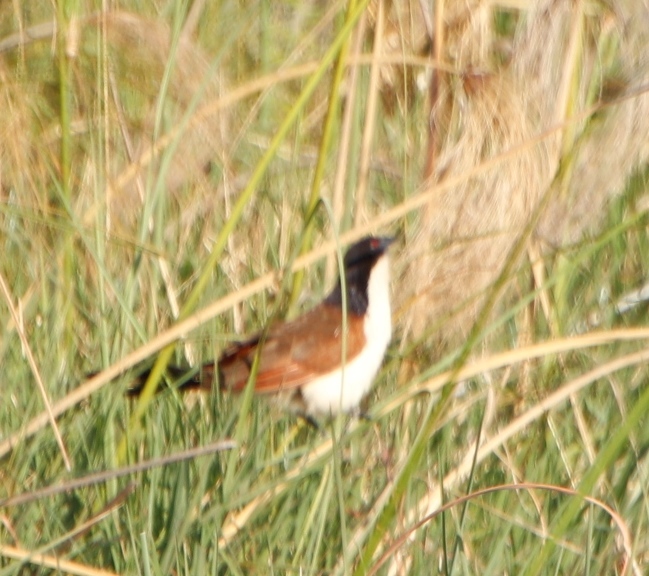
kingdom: Animalia
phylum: Chordata
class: Aves
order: Cuculiformes
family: Cuculidae
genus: Centropus
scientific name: Centropus cupreicaudus
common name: Coppery-tailed coucal
